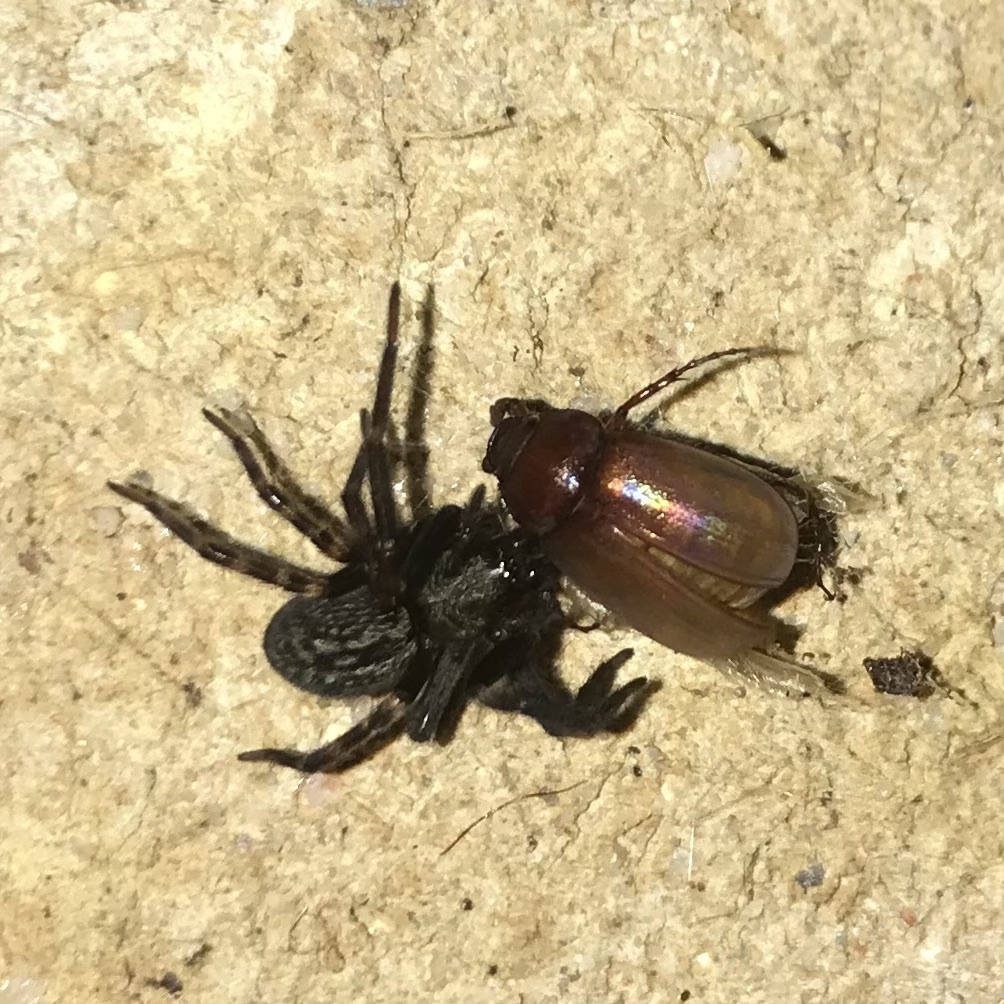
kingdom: Animalia
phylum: Arthropoda
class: Arachnida
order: Araneae
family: Desidae
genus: Badumna
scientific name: Badumna insignis
